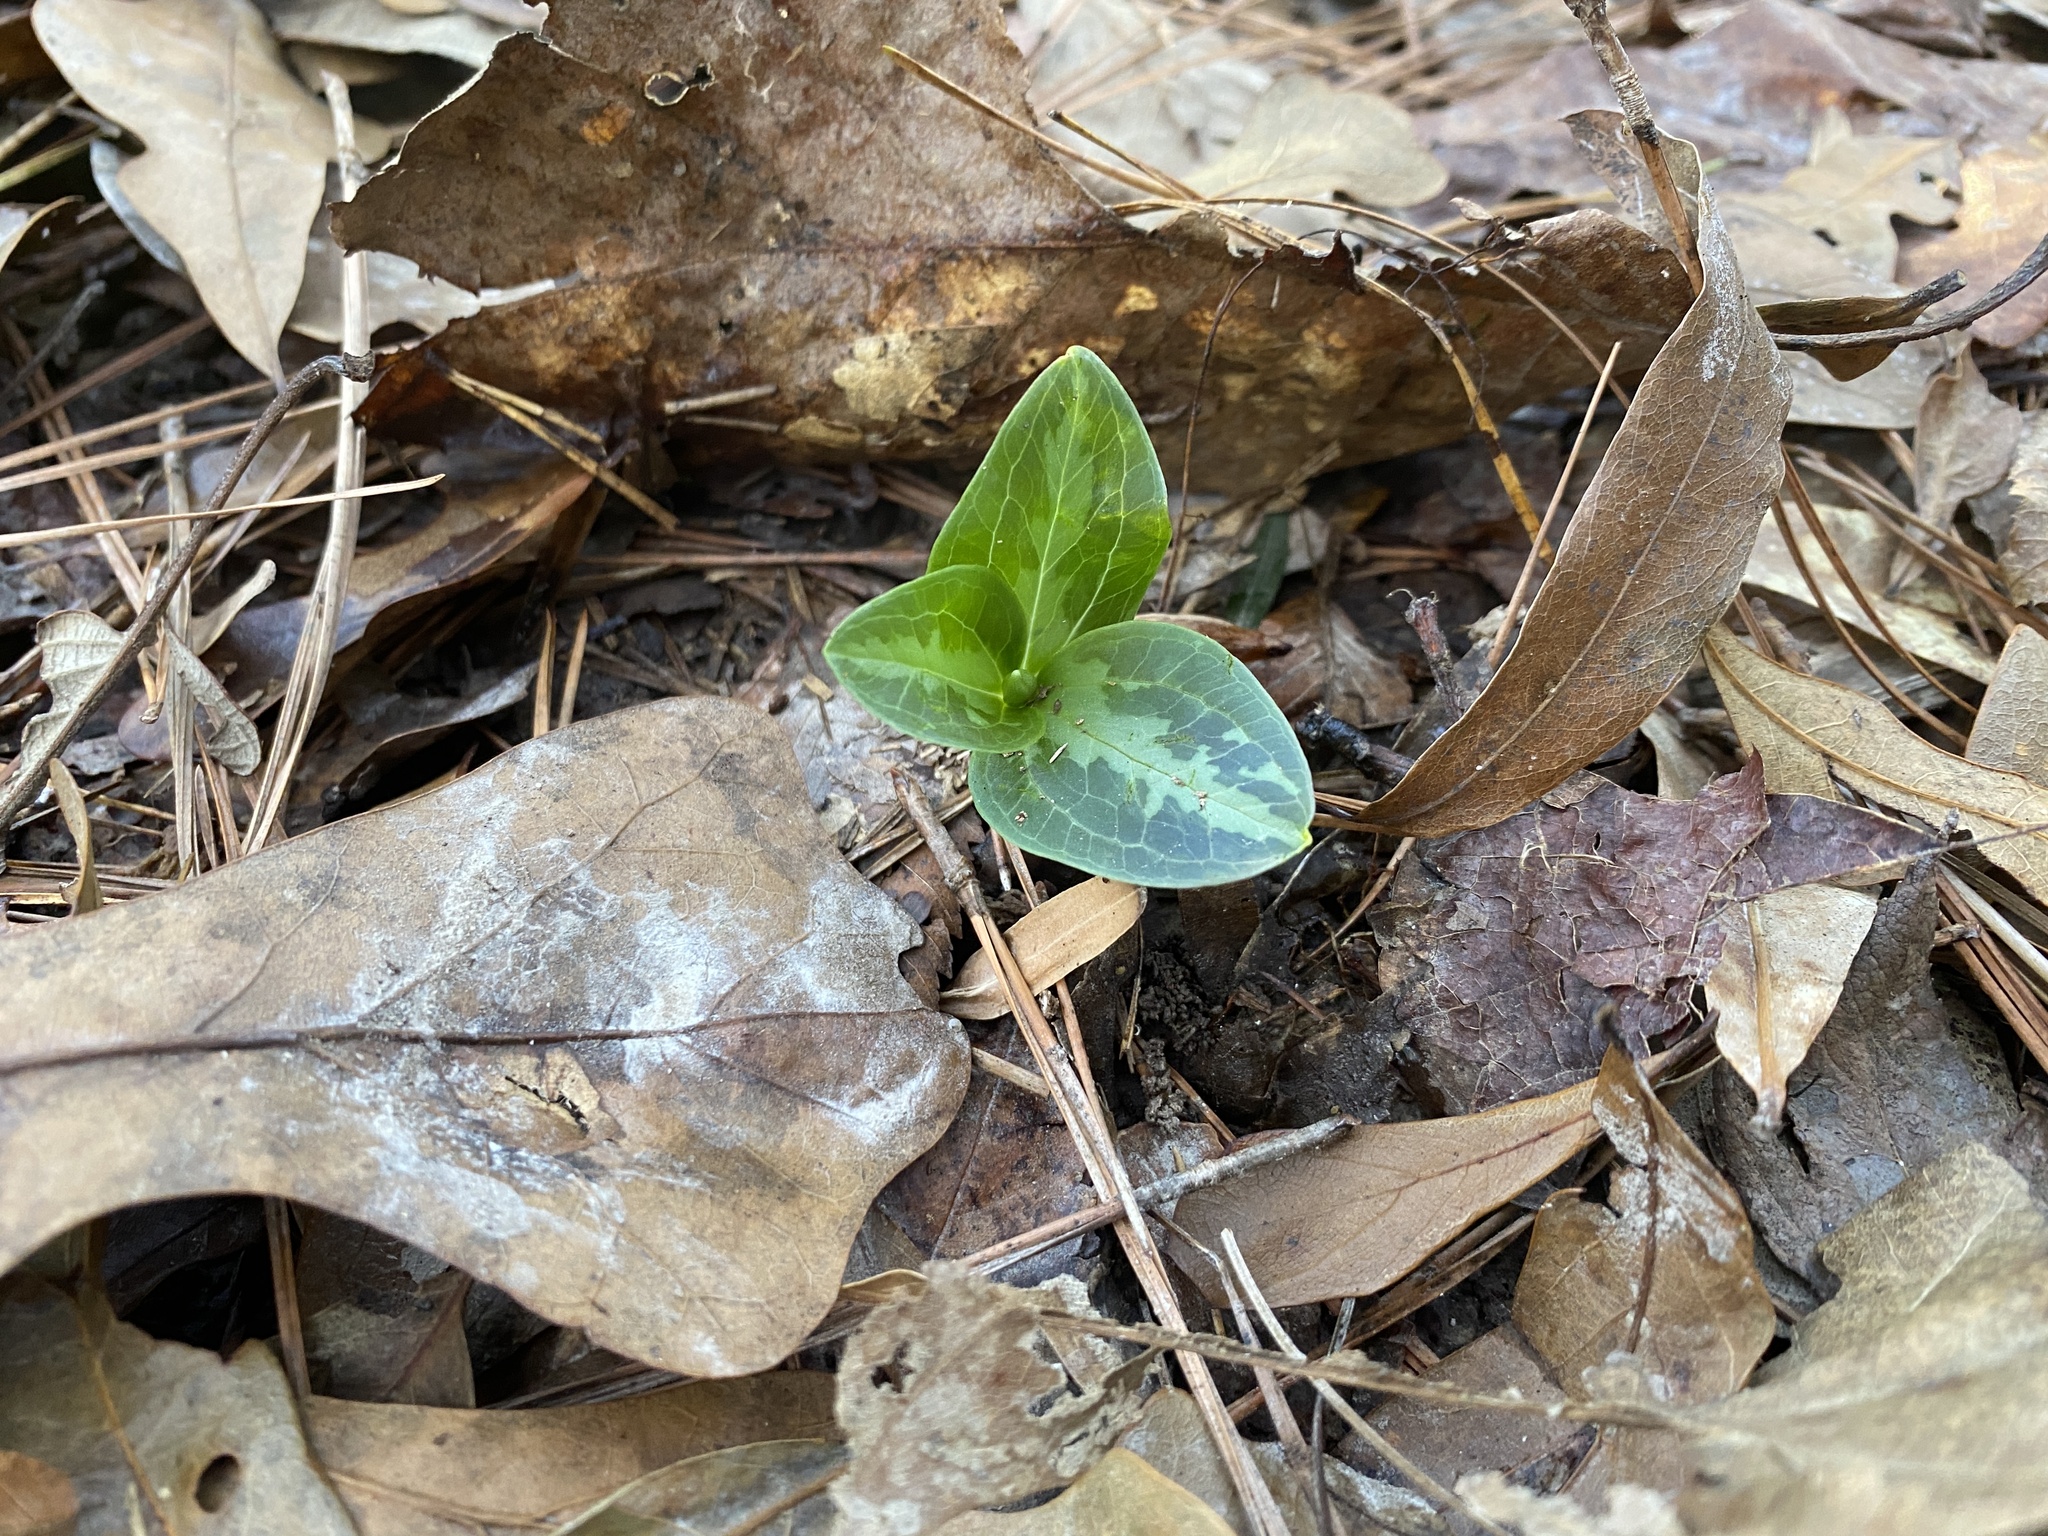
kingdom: Plantae
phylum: Tracheophyta
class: Liliopsida
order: Liliales
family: Melanthiaceae
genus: Trillium
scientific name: Trillium foetidissimum
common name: Mississippi river trillium
